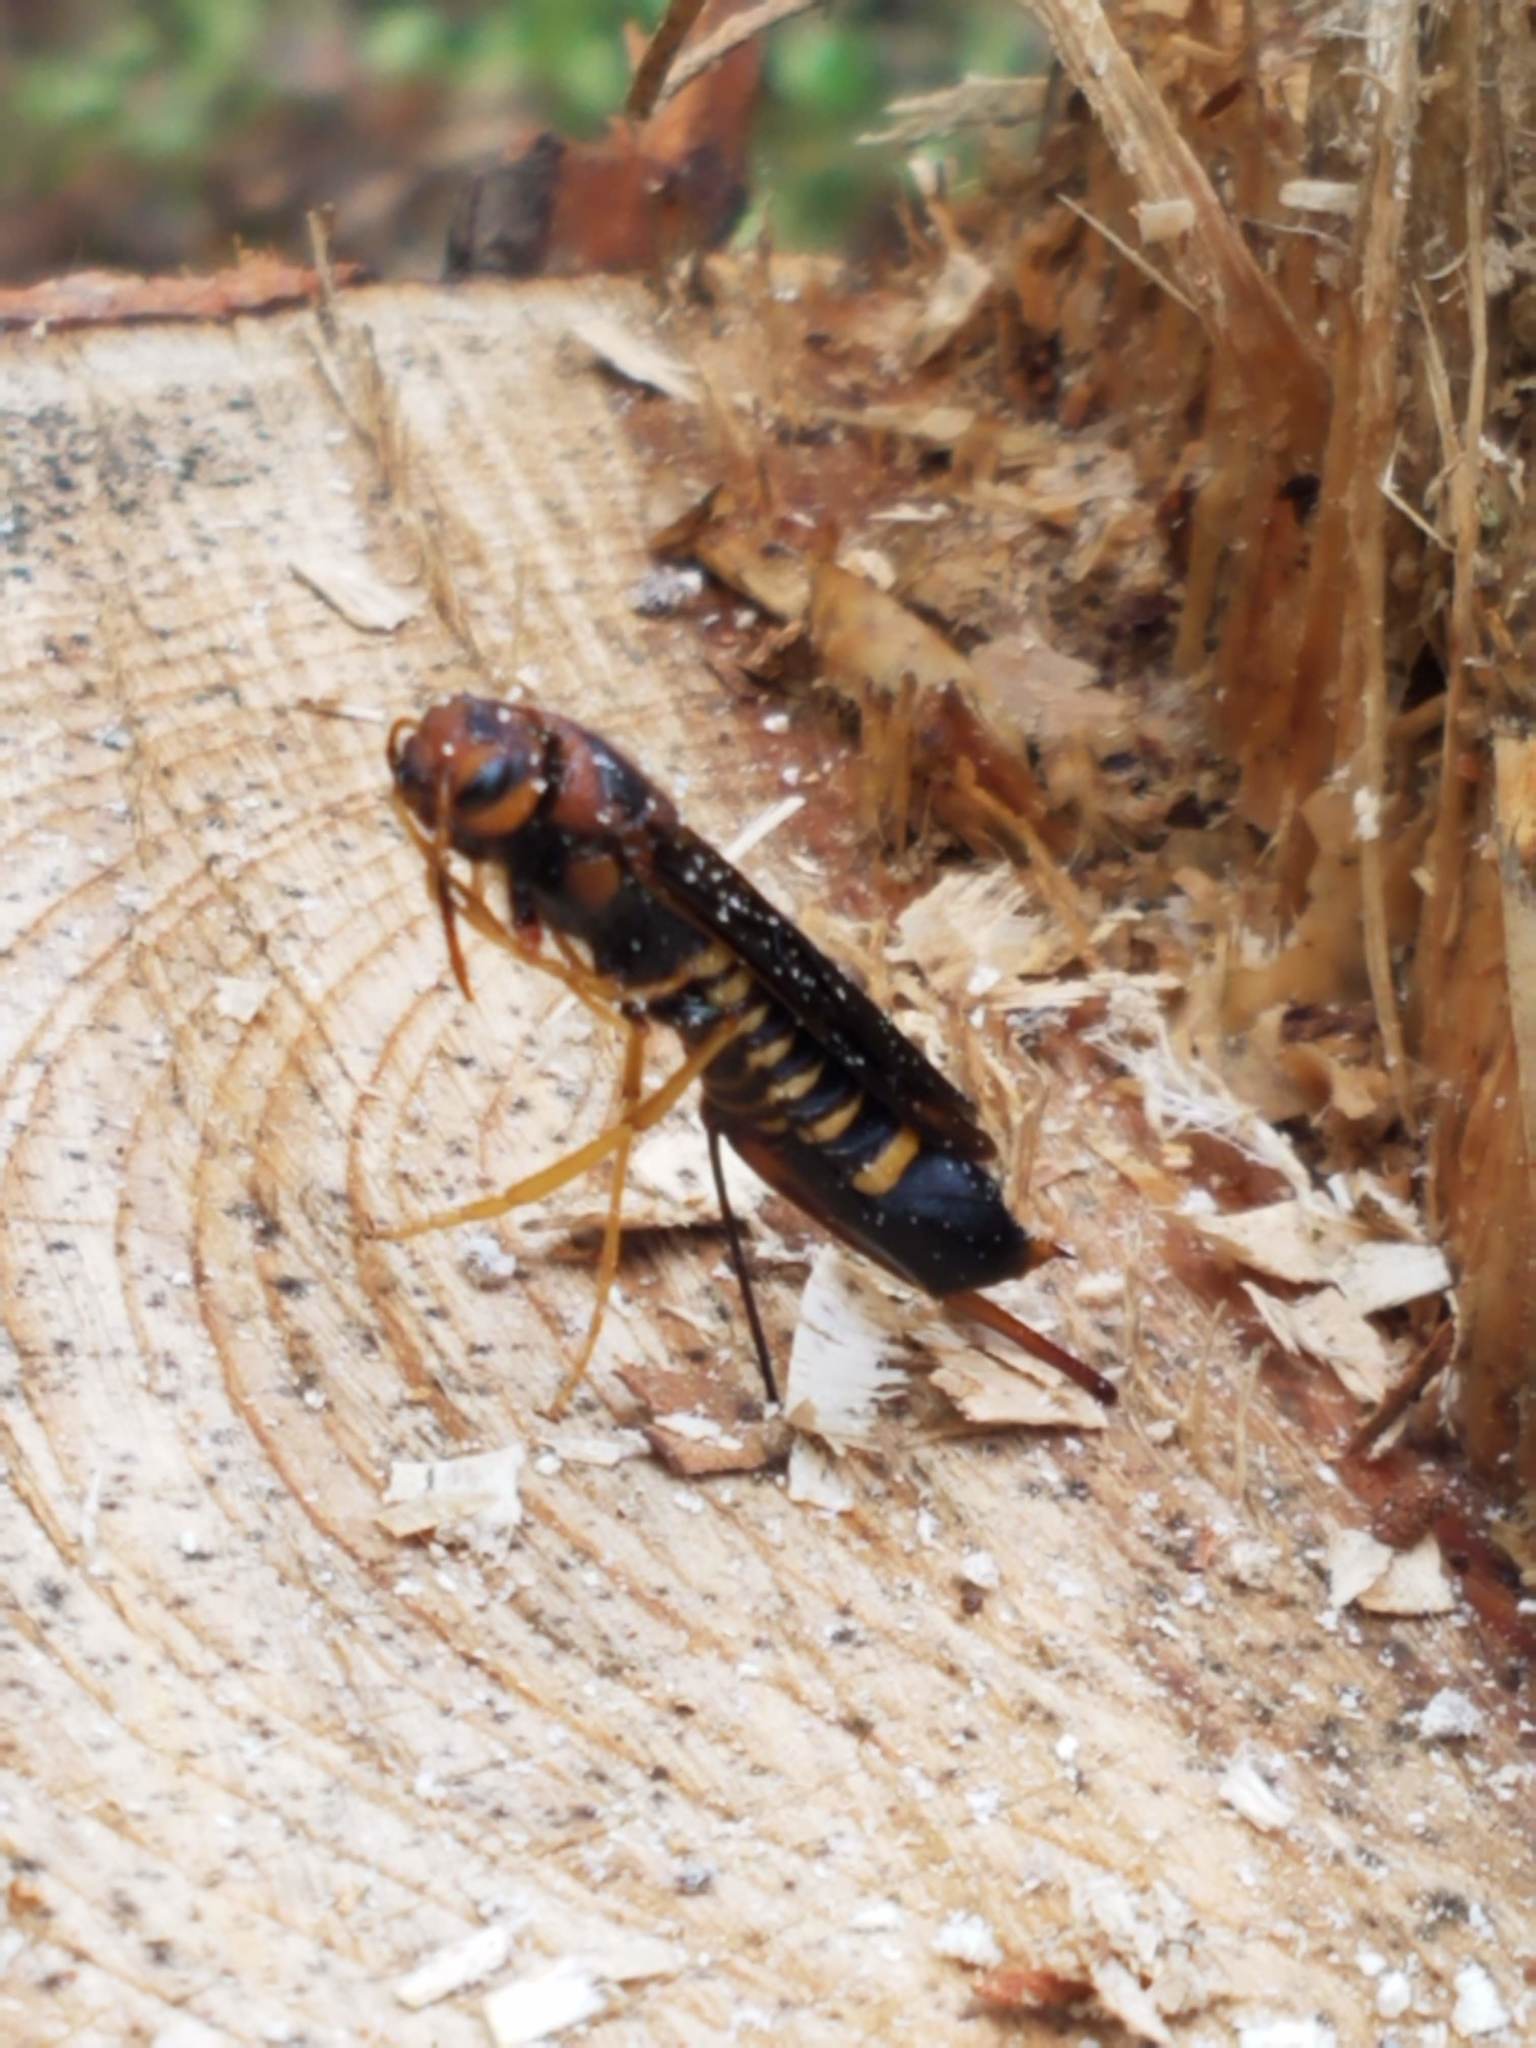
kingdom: Animalia
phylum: Arthropoda
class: Insecta
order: Hymenoptera
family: Siricidae
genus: Tremex
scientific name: Tremex columba
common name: Wasp
